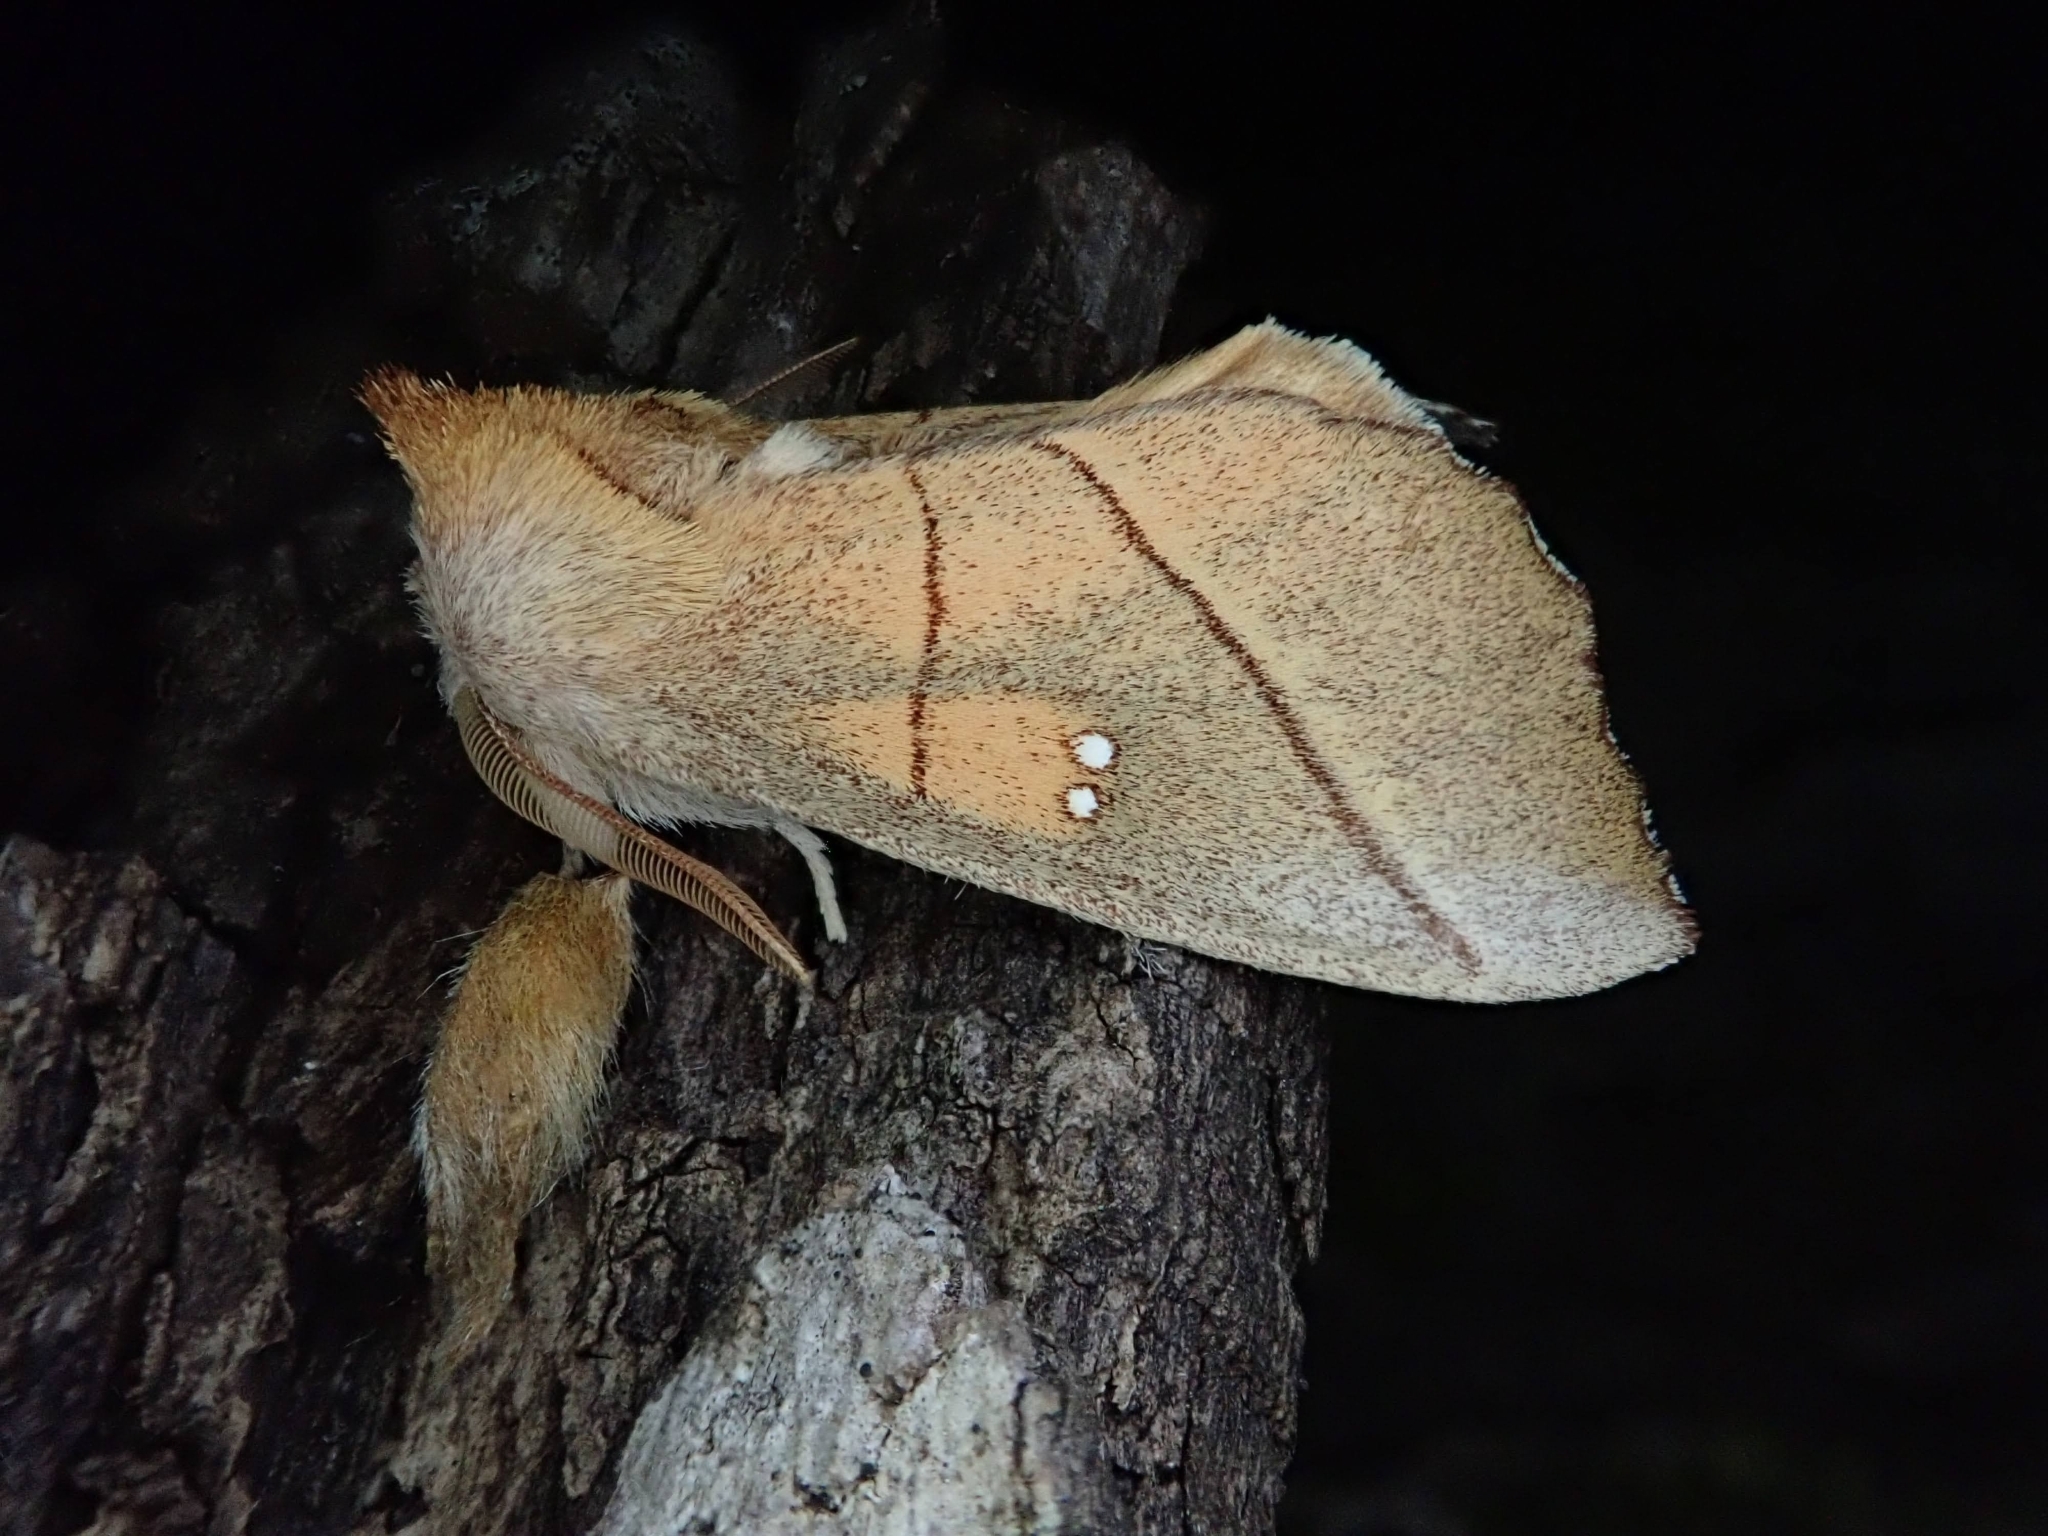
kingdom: Animalia
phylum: Arthropoda
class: Insecta
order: Lepidoptera
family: Notodontidae
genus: Nadata
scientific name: Nadata gibbosa
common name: White-dotted prominent
